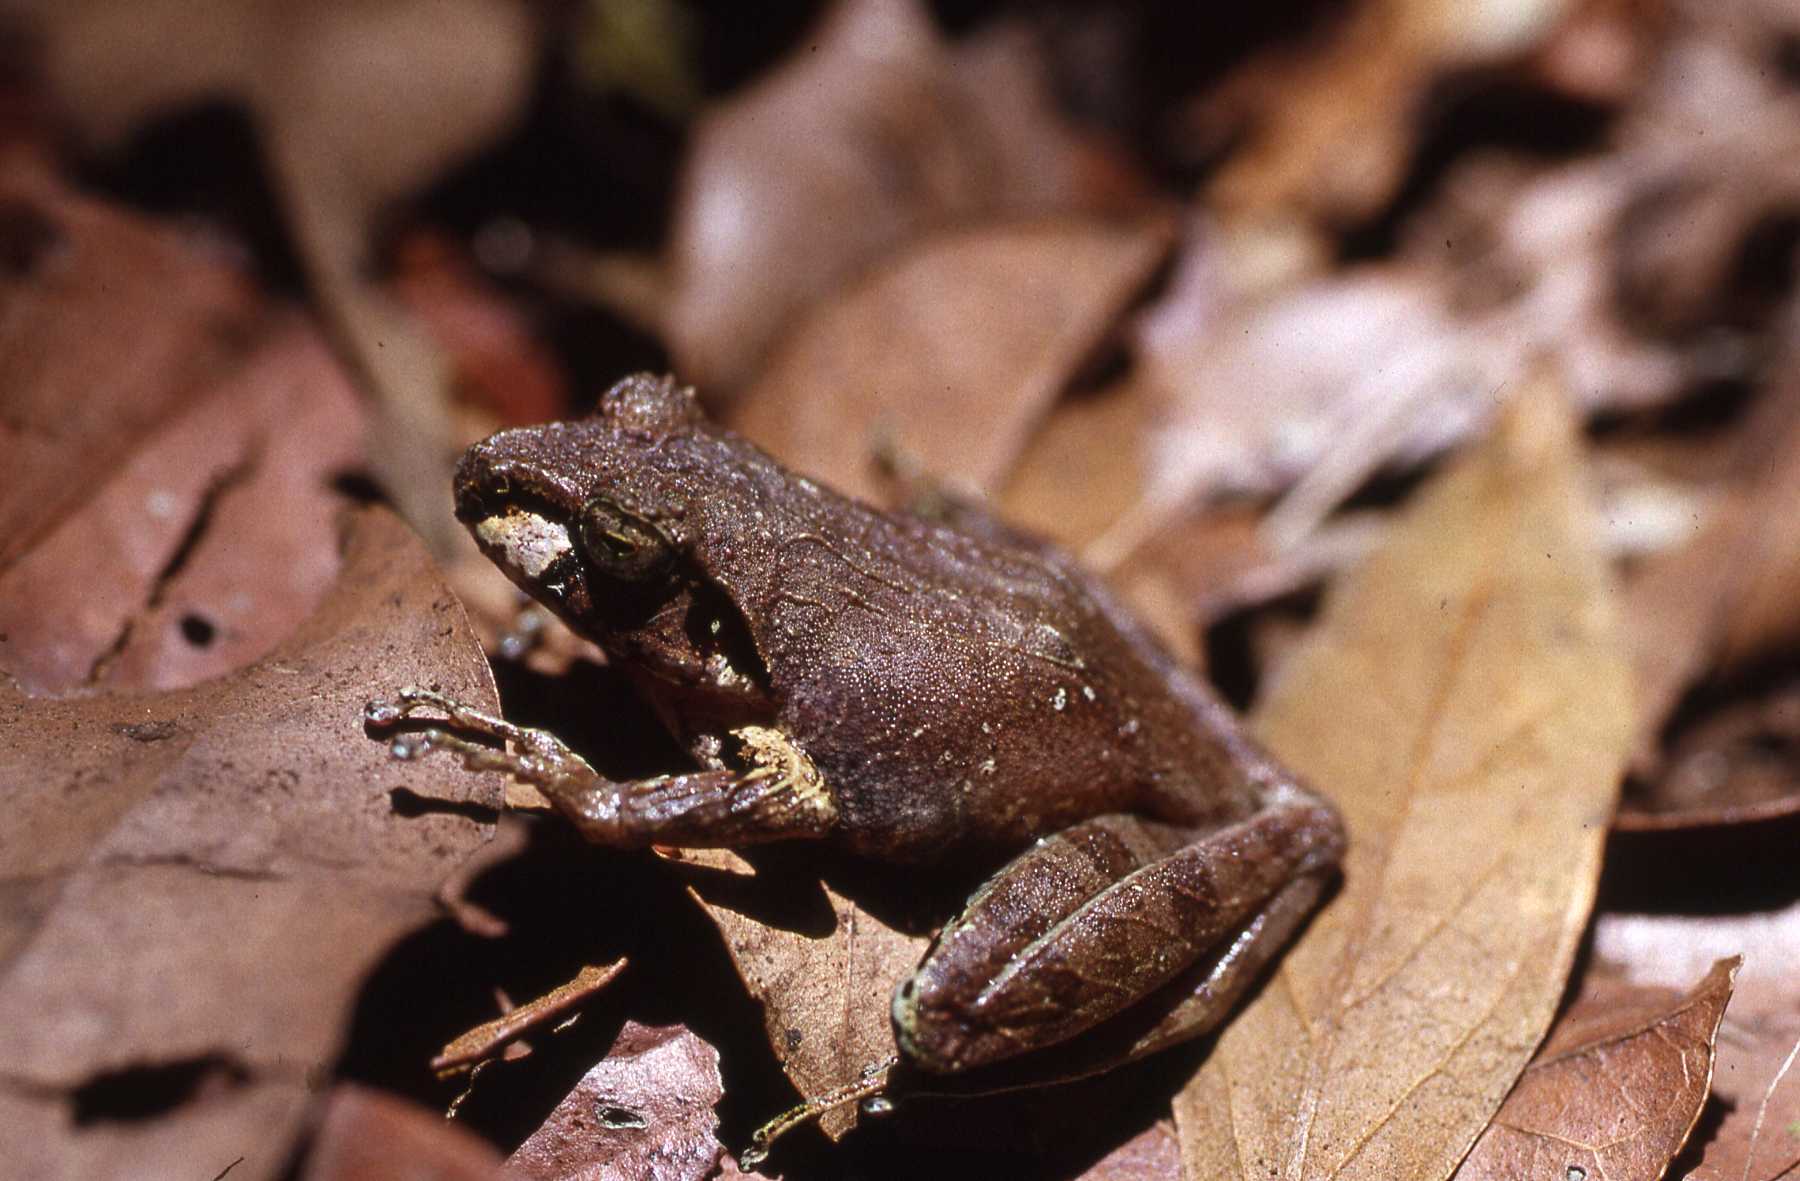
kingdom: Animalia
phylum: Chordata
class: Amphibia
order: Anura
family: Mantellidae
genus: Gephyromantis
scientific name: Gephyromantis ambohitra
